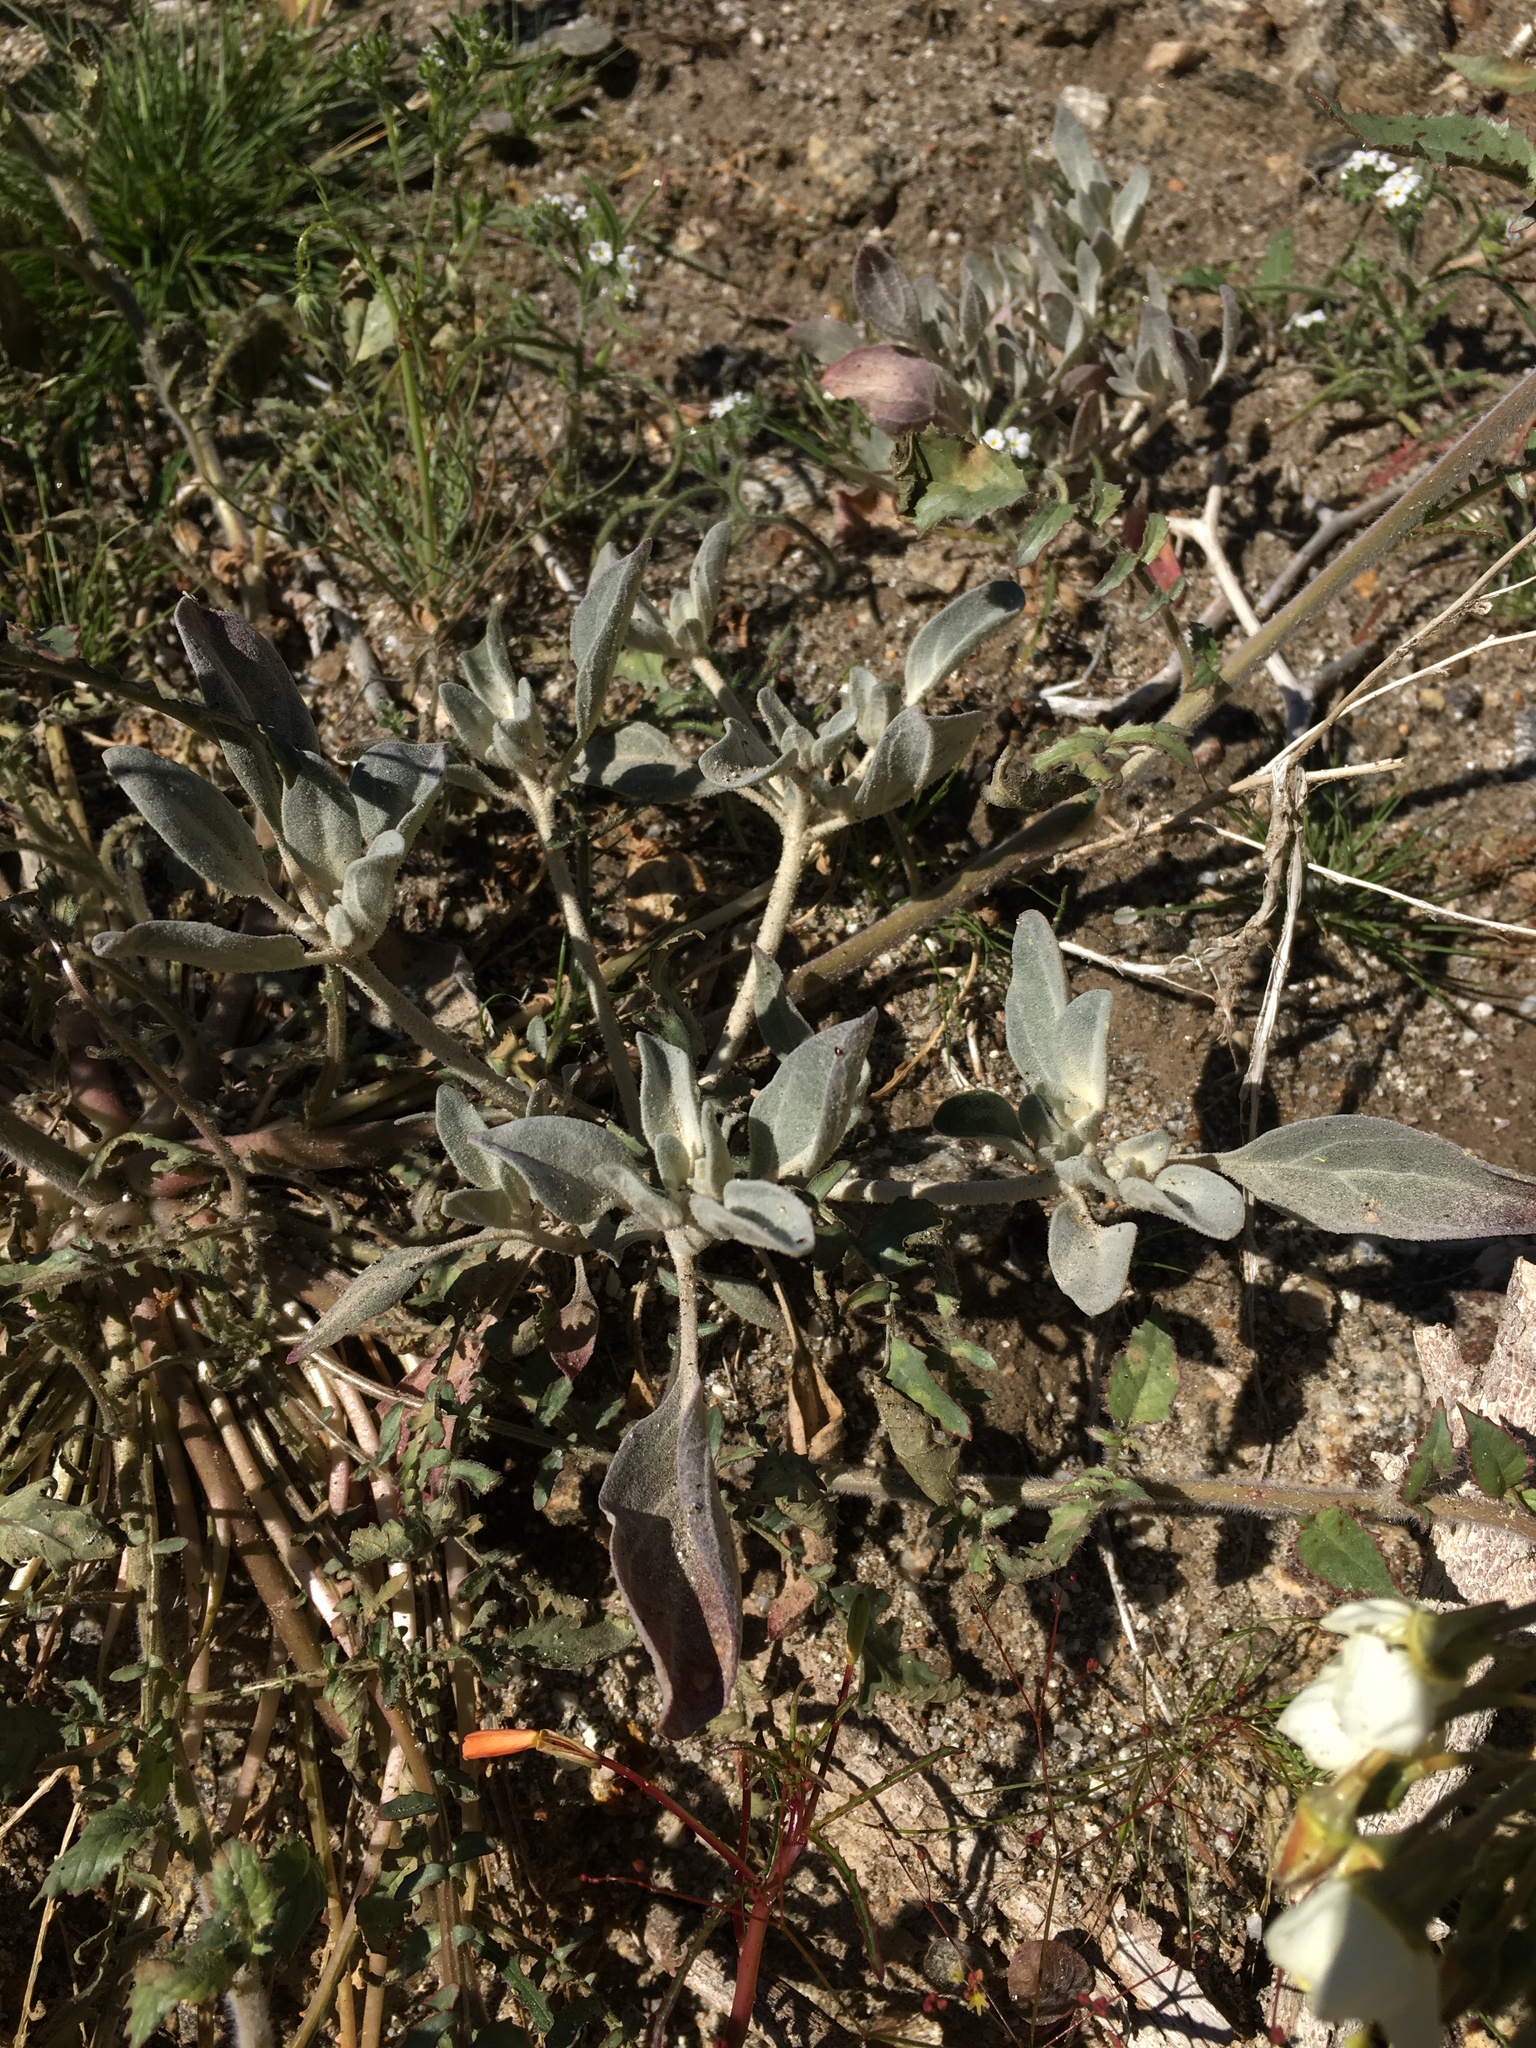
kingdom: Plantae
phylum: Tracheophyta
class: Magnoliopsida
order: Caryophyllales
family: Amaranthaceae
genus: Tidestromia
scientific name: Tidestromia suffruticosa
